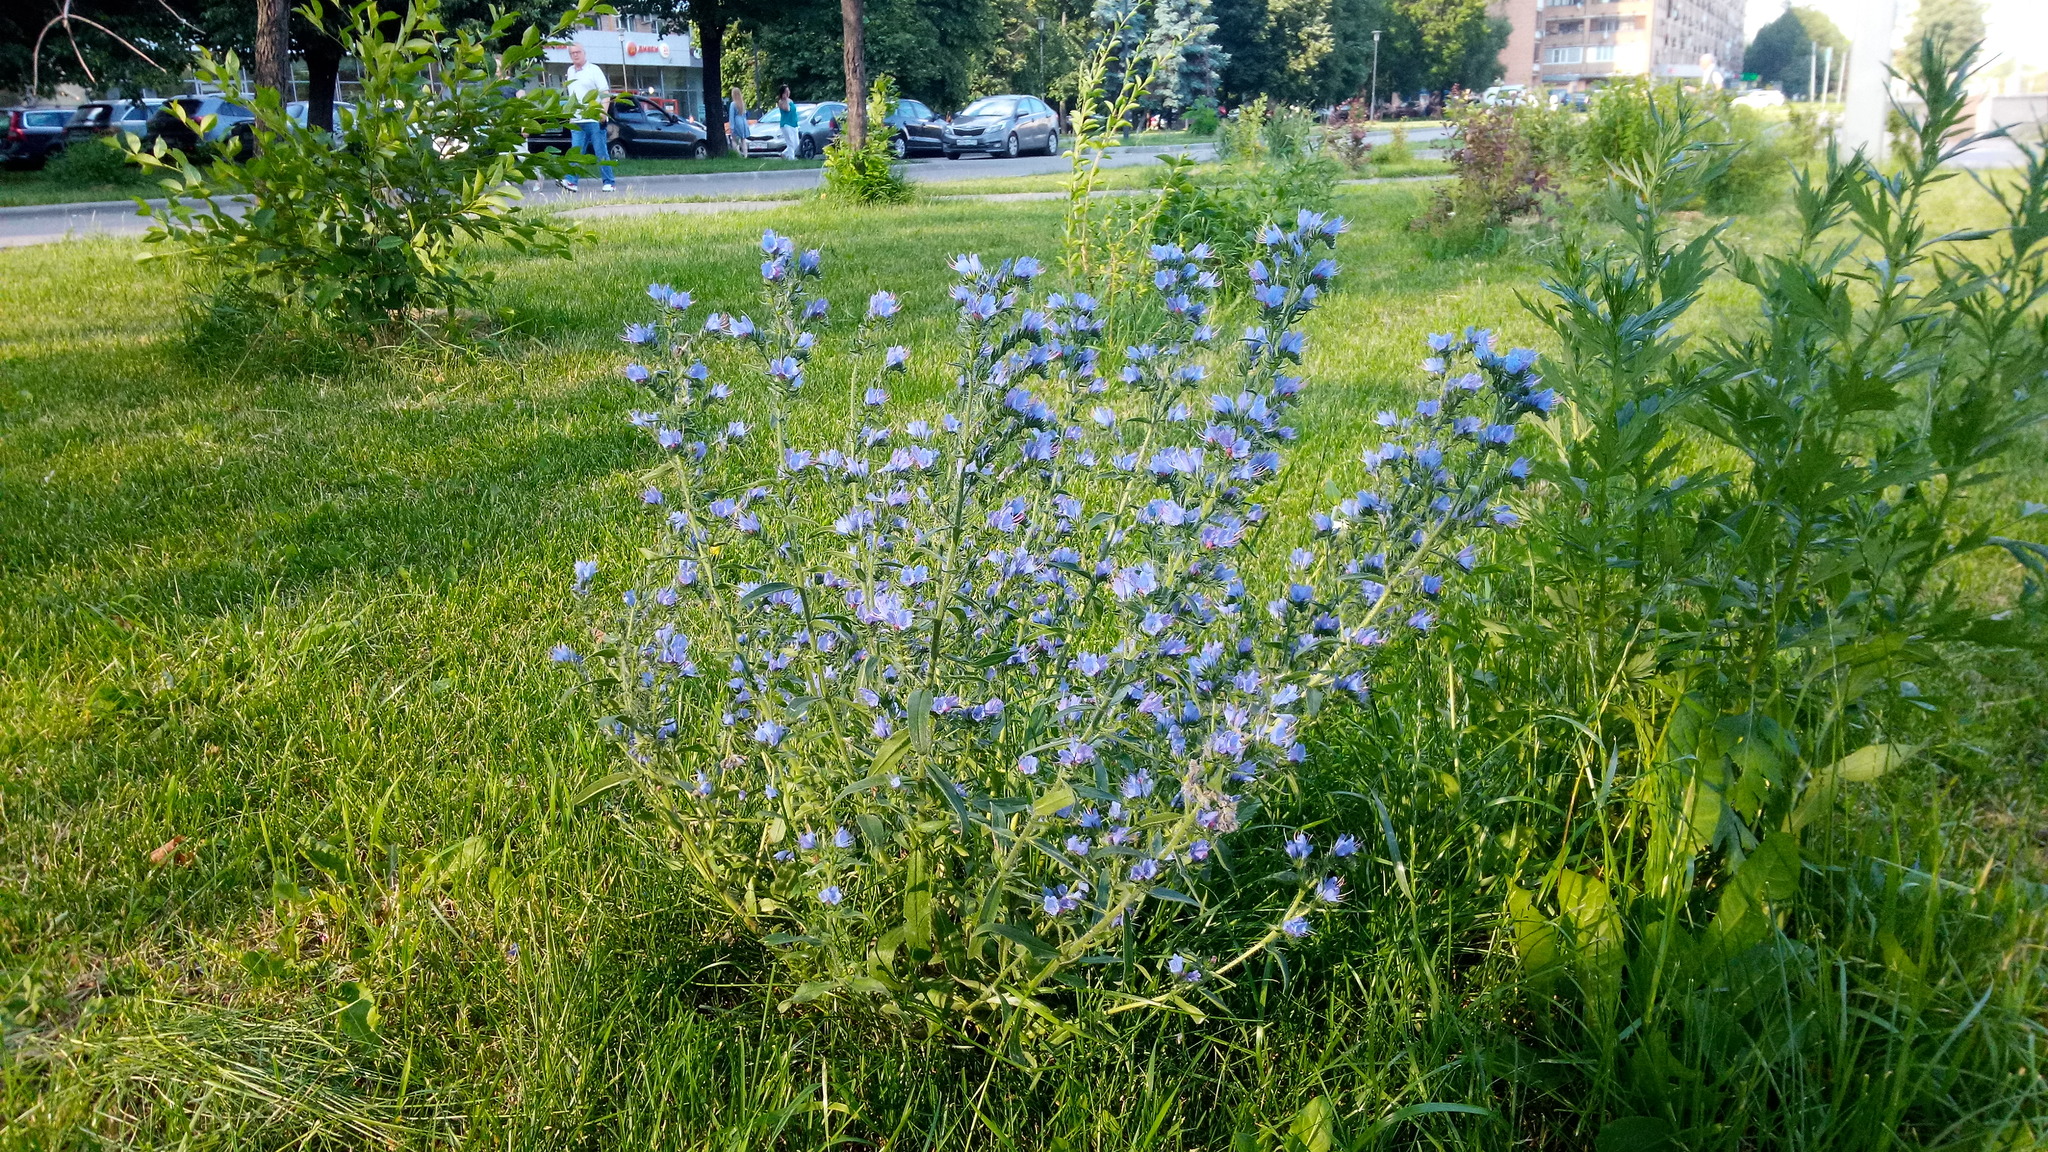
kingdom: Plantae
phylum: Tracheophyta
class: Magnoliopsida
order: Boraginales
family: Boraginaceae
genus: Echium
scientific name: Echium vulgare
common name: Common viper's bugloss
